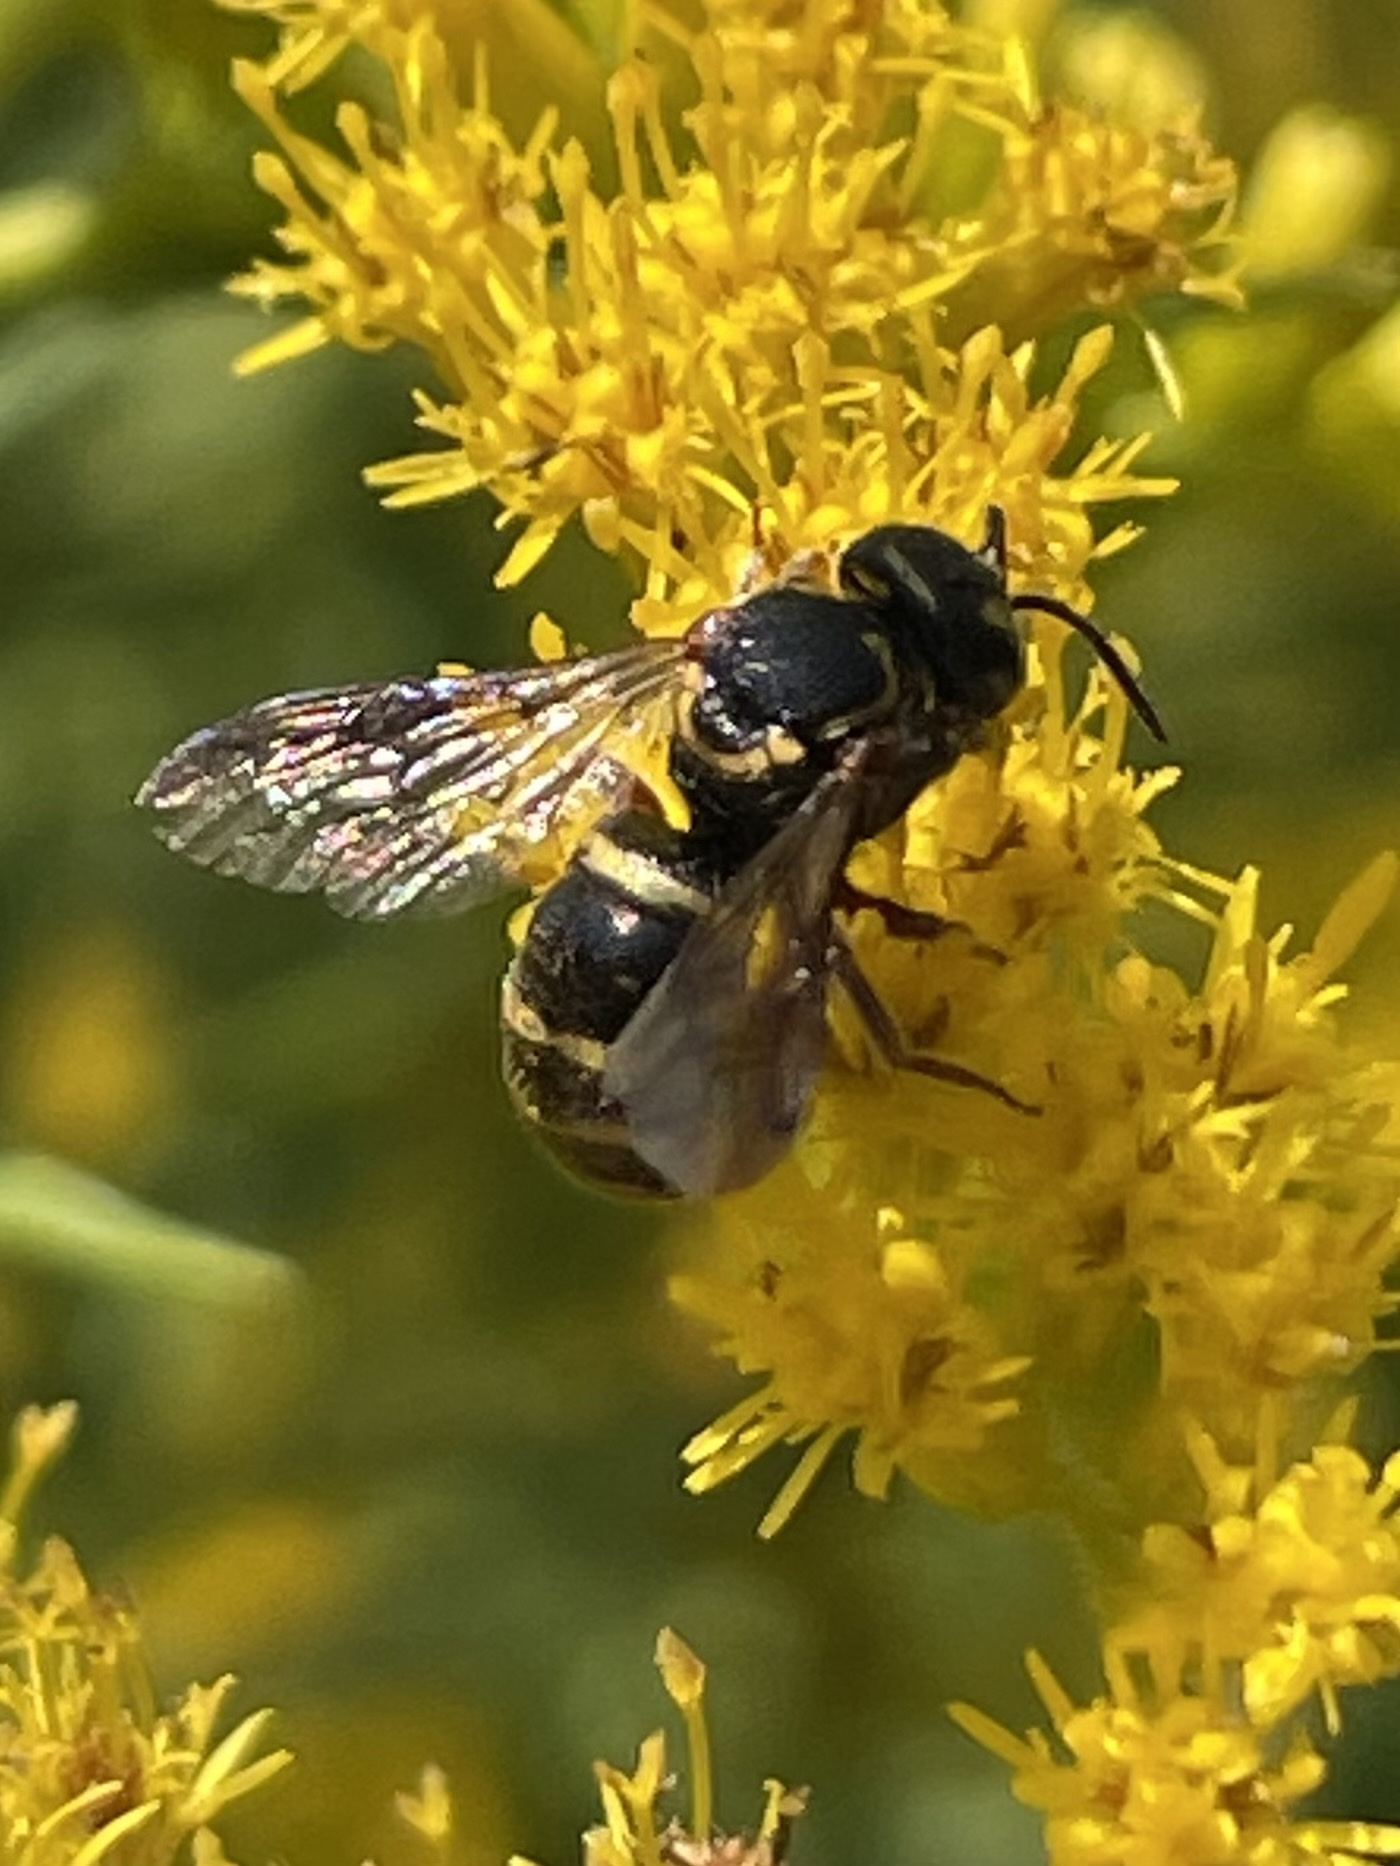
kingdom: Animalia
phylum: Arthropoda
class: Insecta
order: Hymenoptera
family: Megachilidae
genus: Stelis
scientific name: Stelis costalis
